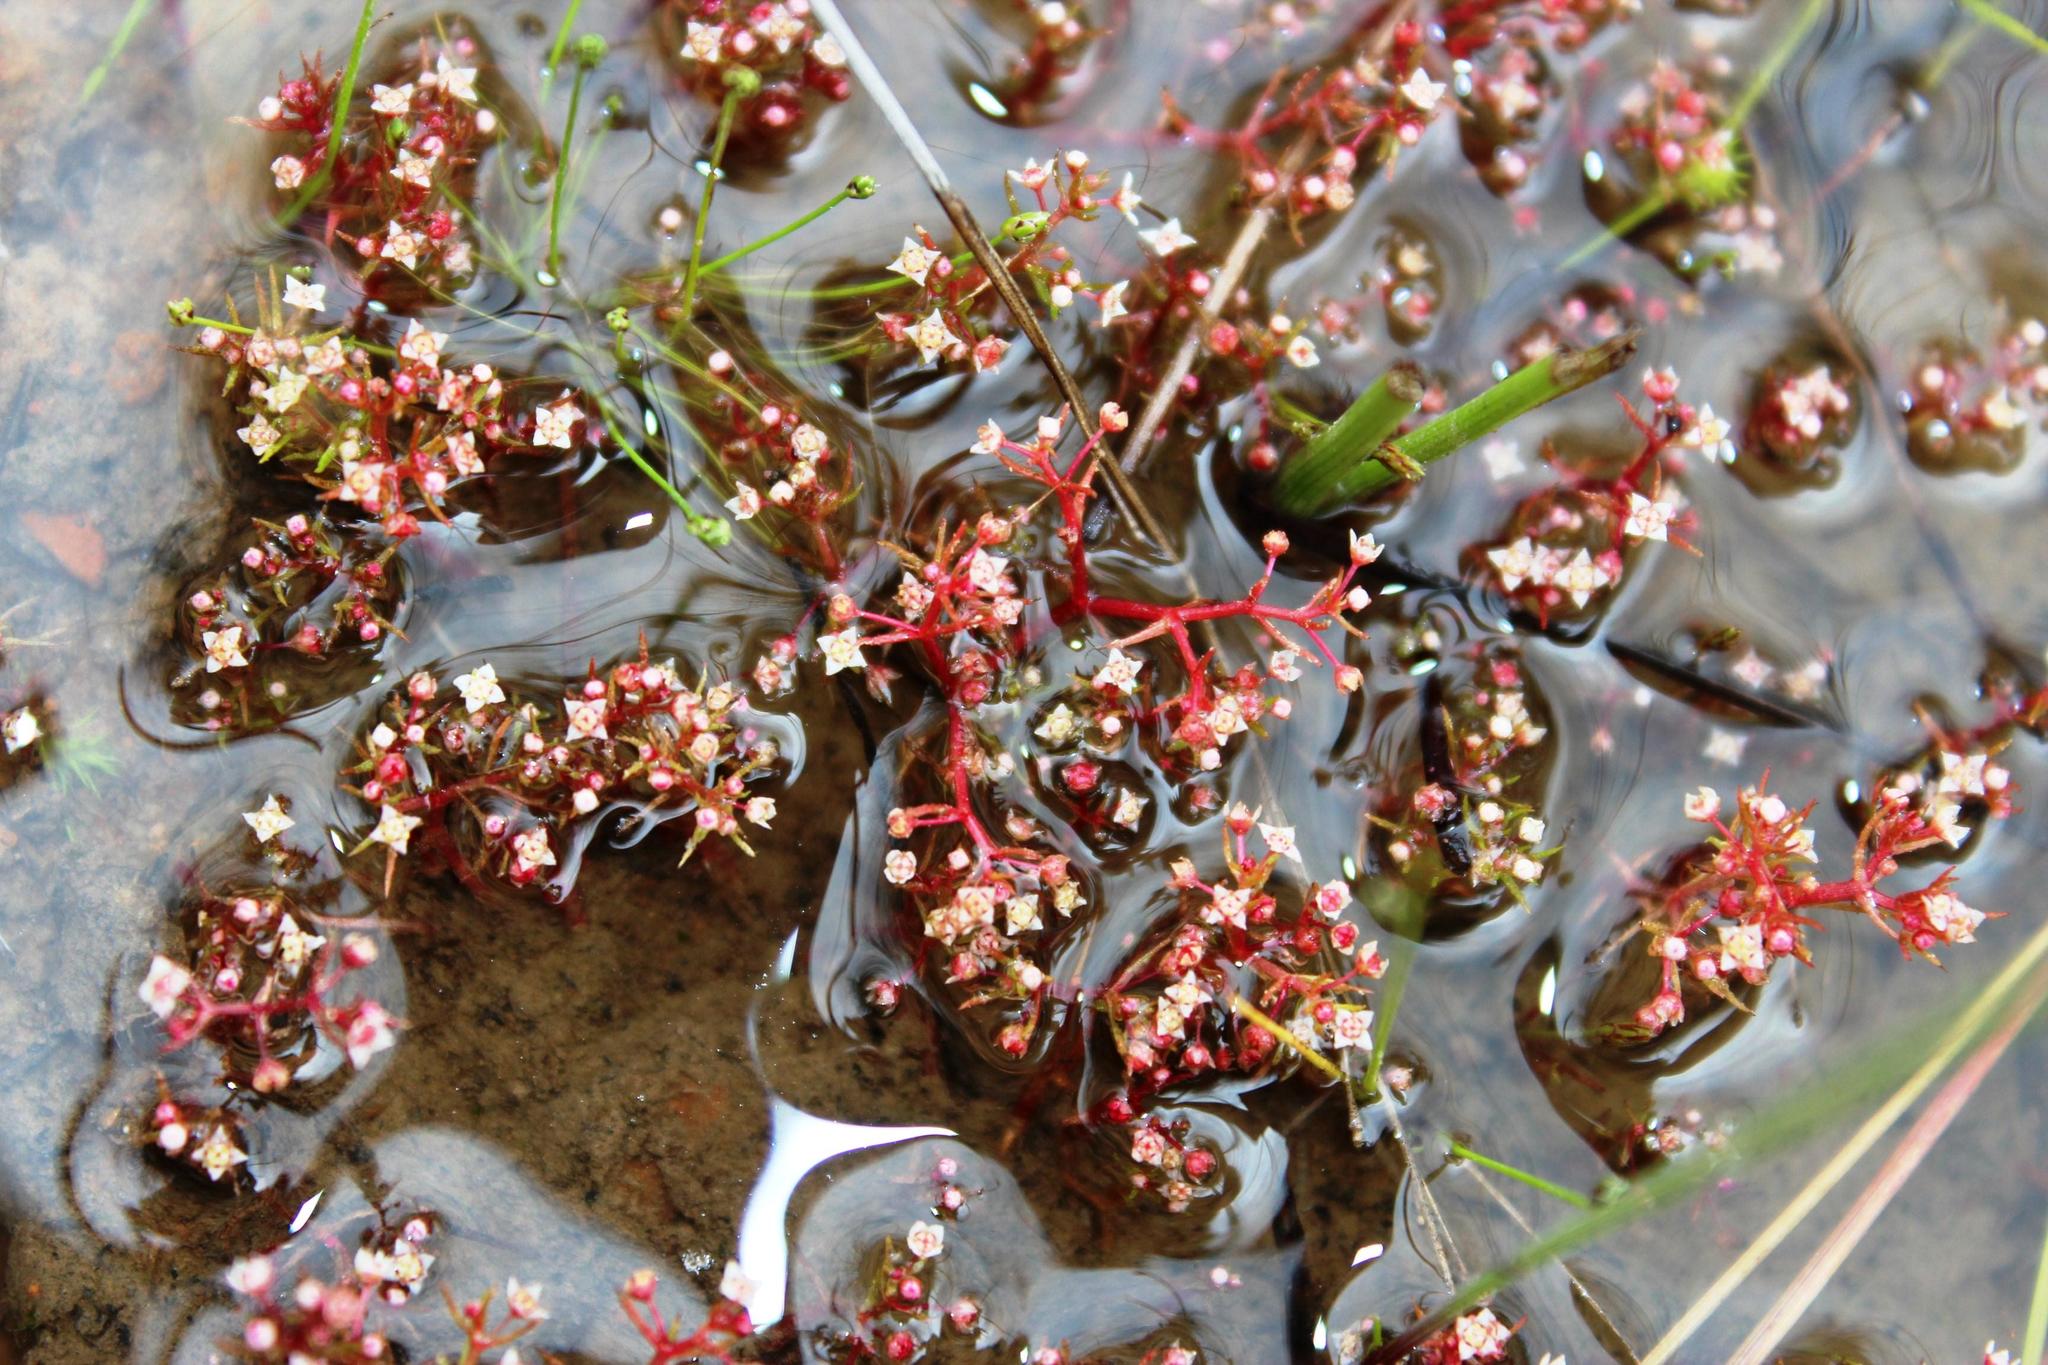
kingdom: Plantae
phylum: Tracheophyta
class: Magnoliopsida
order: Saxifragales
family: Crassulaceae
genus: Crassula
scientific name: Crassula vaillantii
